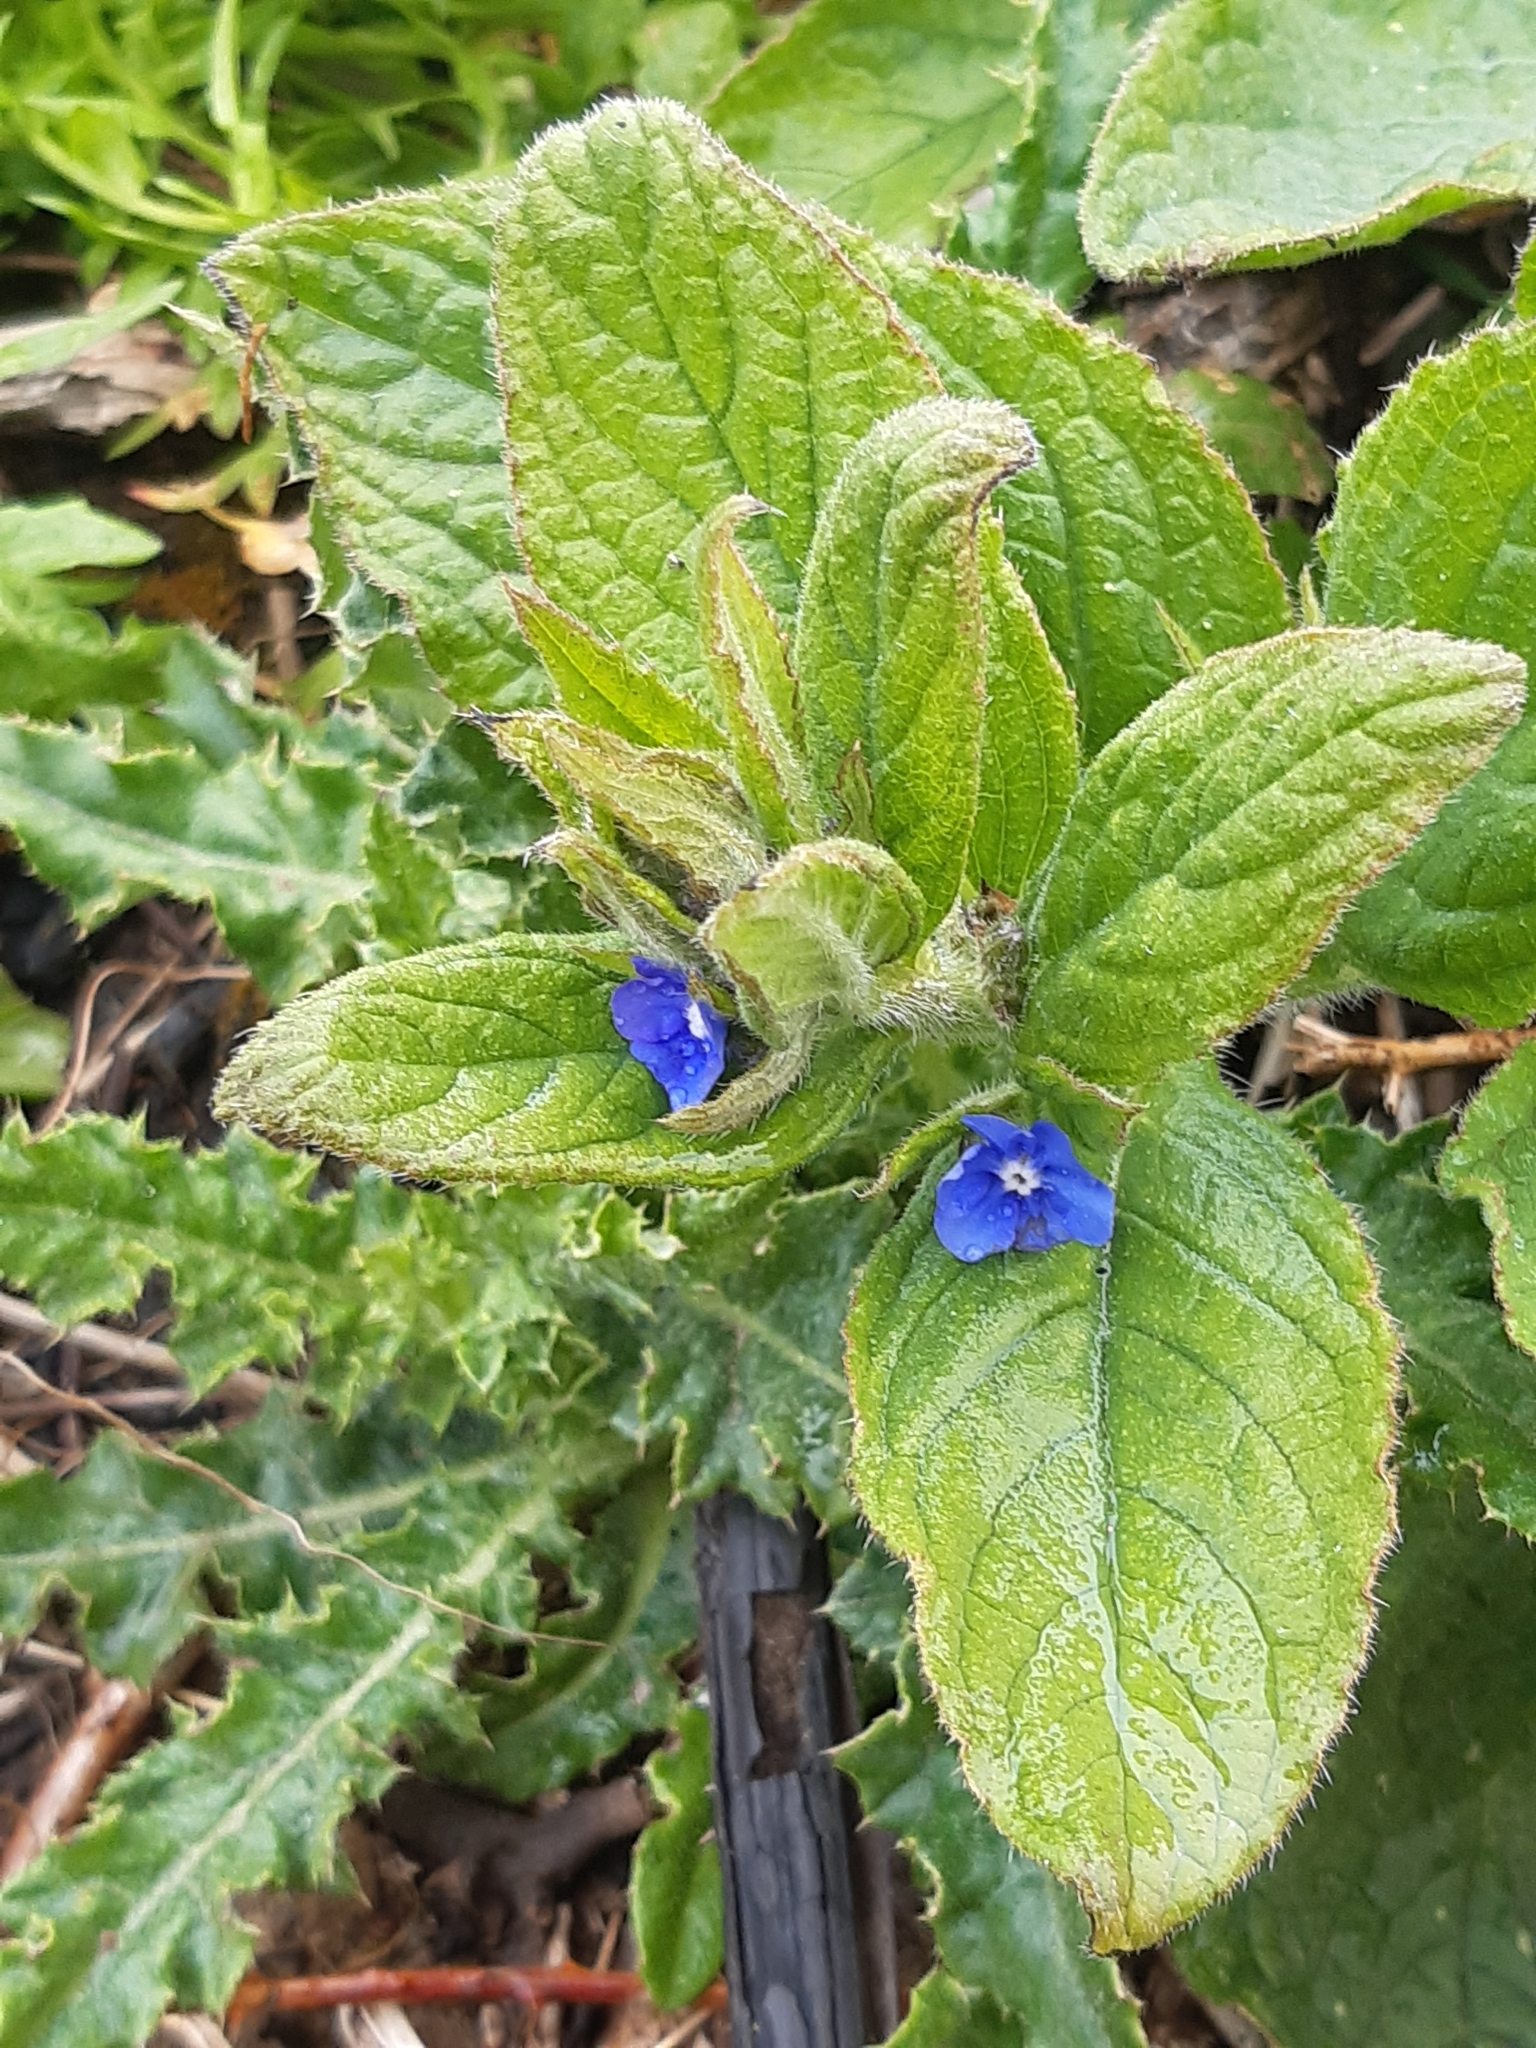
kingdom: Plantae
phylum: Tracheophyta
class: Magnoliopsida
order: Boraginales
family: Boraginaceae
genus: Pentaglottis
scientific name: Pentaglottis sempervirens
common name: Green alkanet
